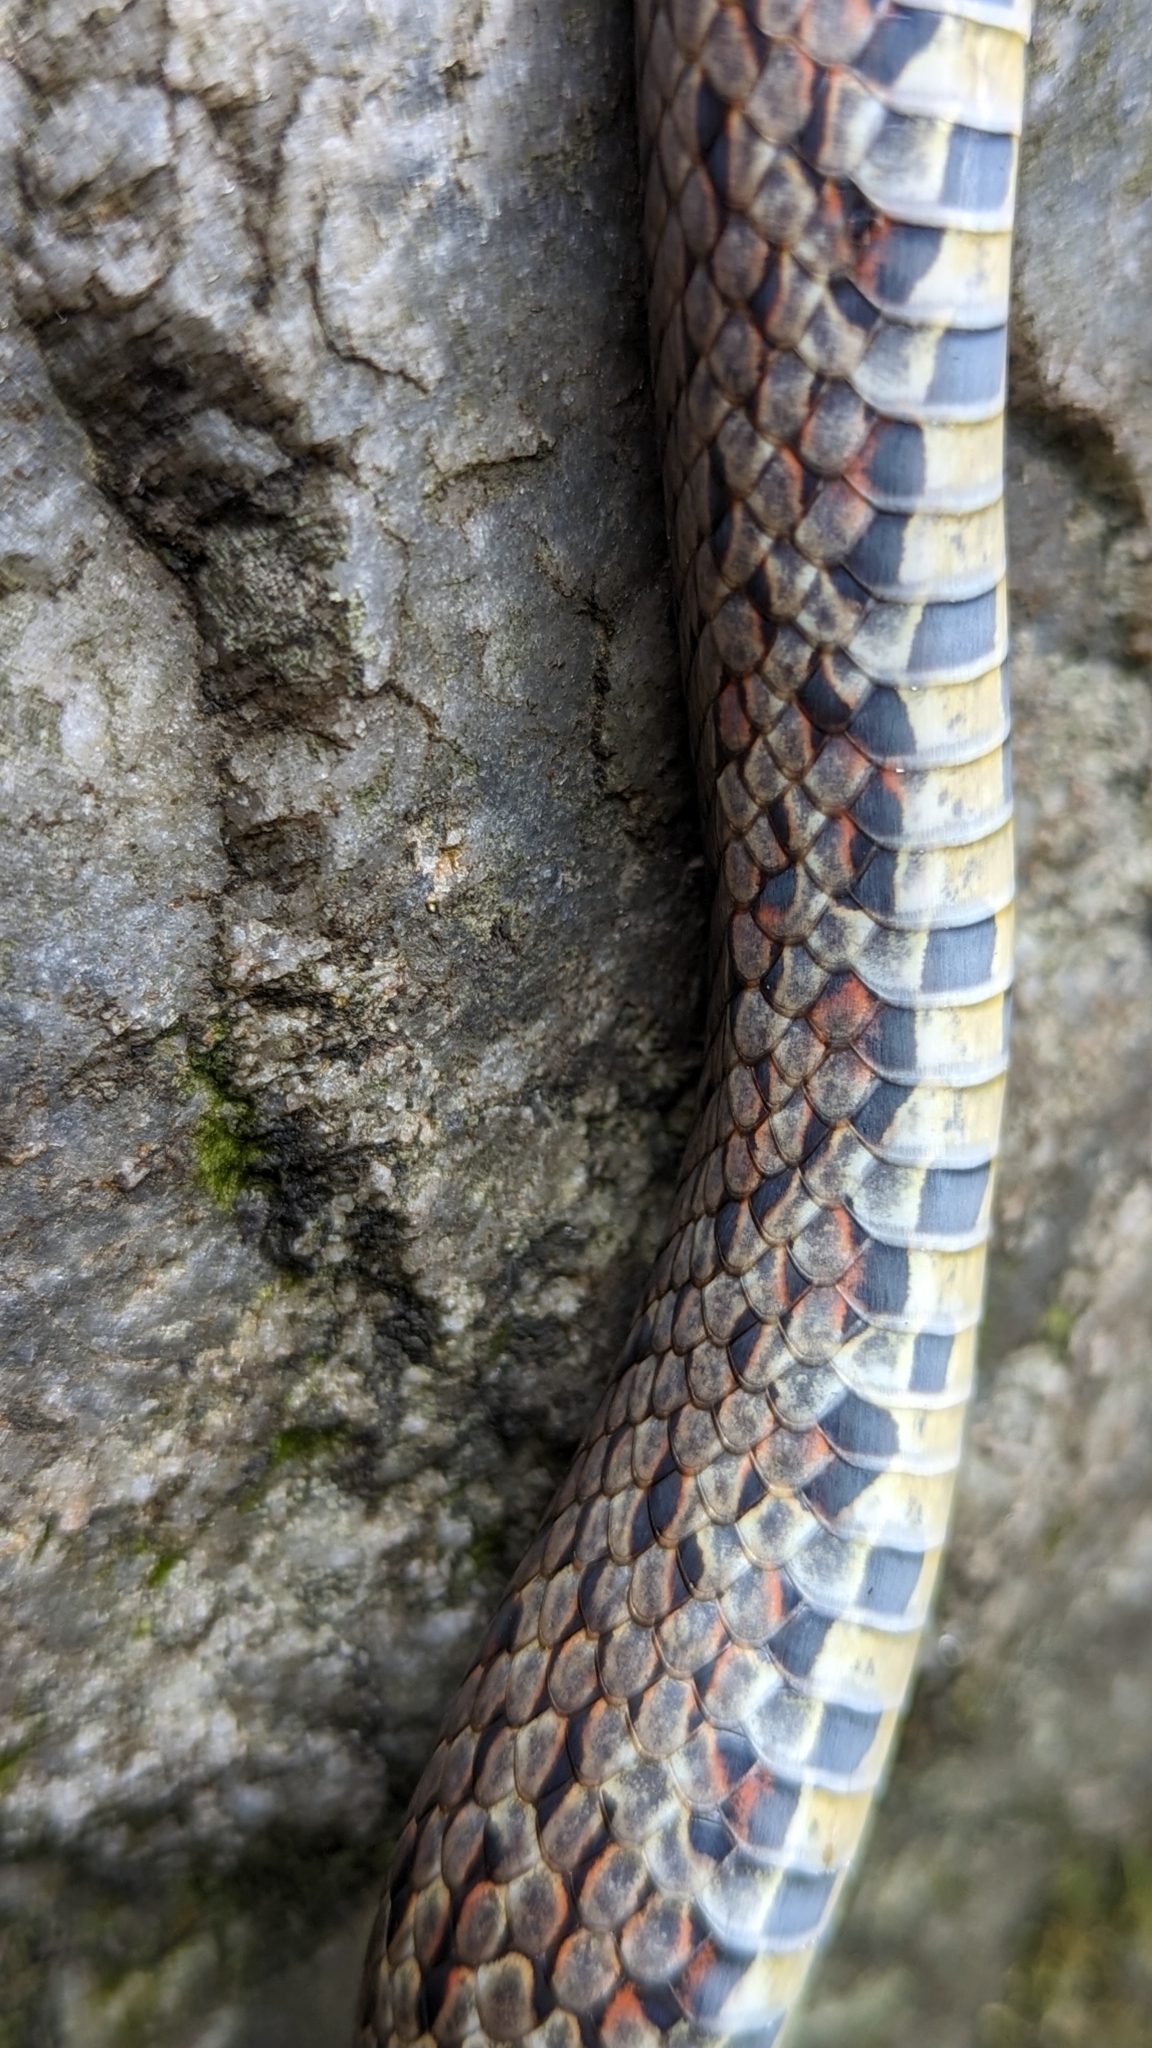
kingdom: Animalia
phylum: Chordata
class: Squamata
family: Colubridae
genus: Archelaphe
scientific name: Archelaphe bella
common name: Bella rat snake
